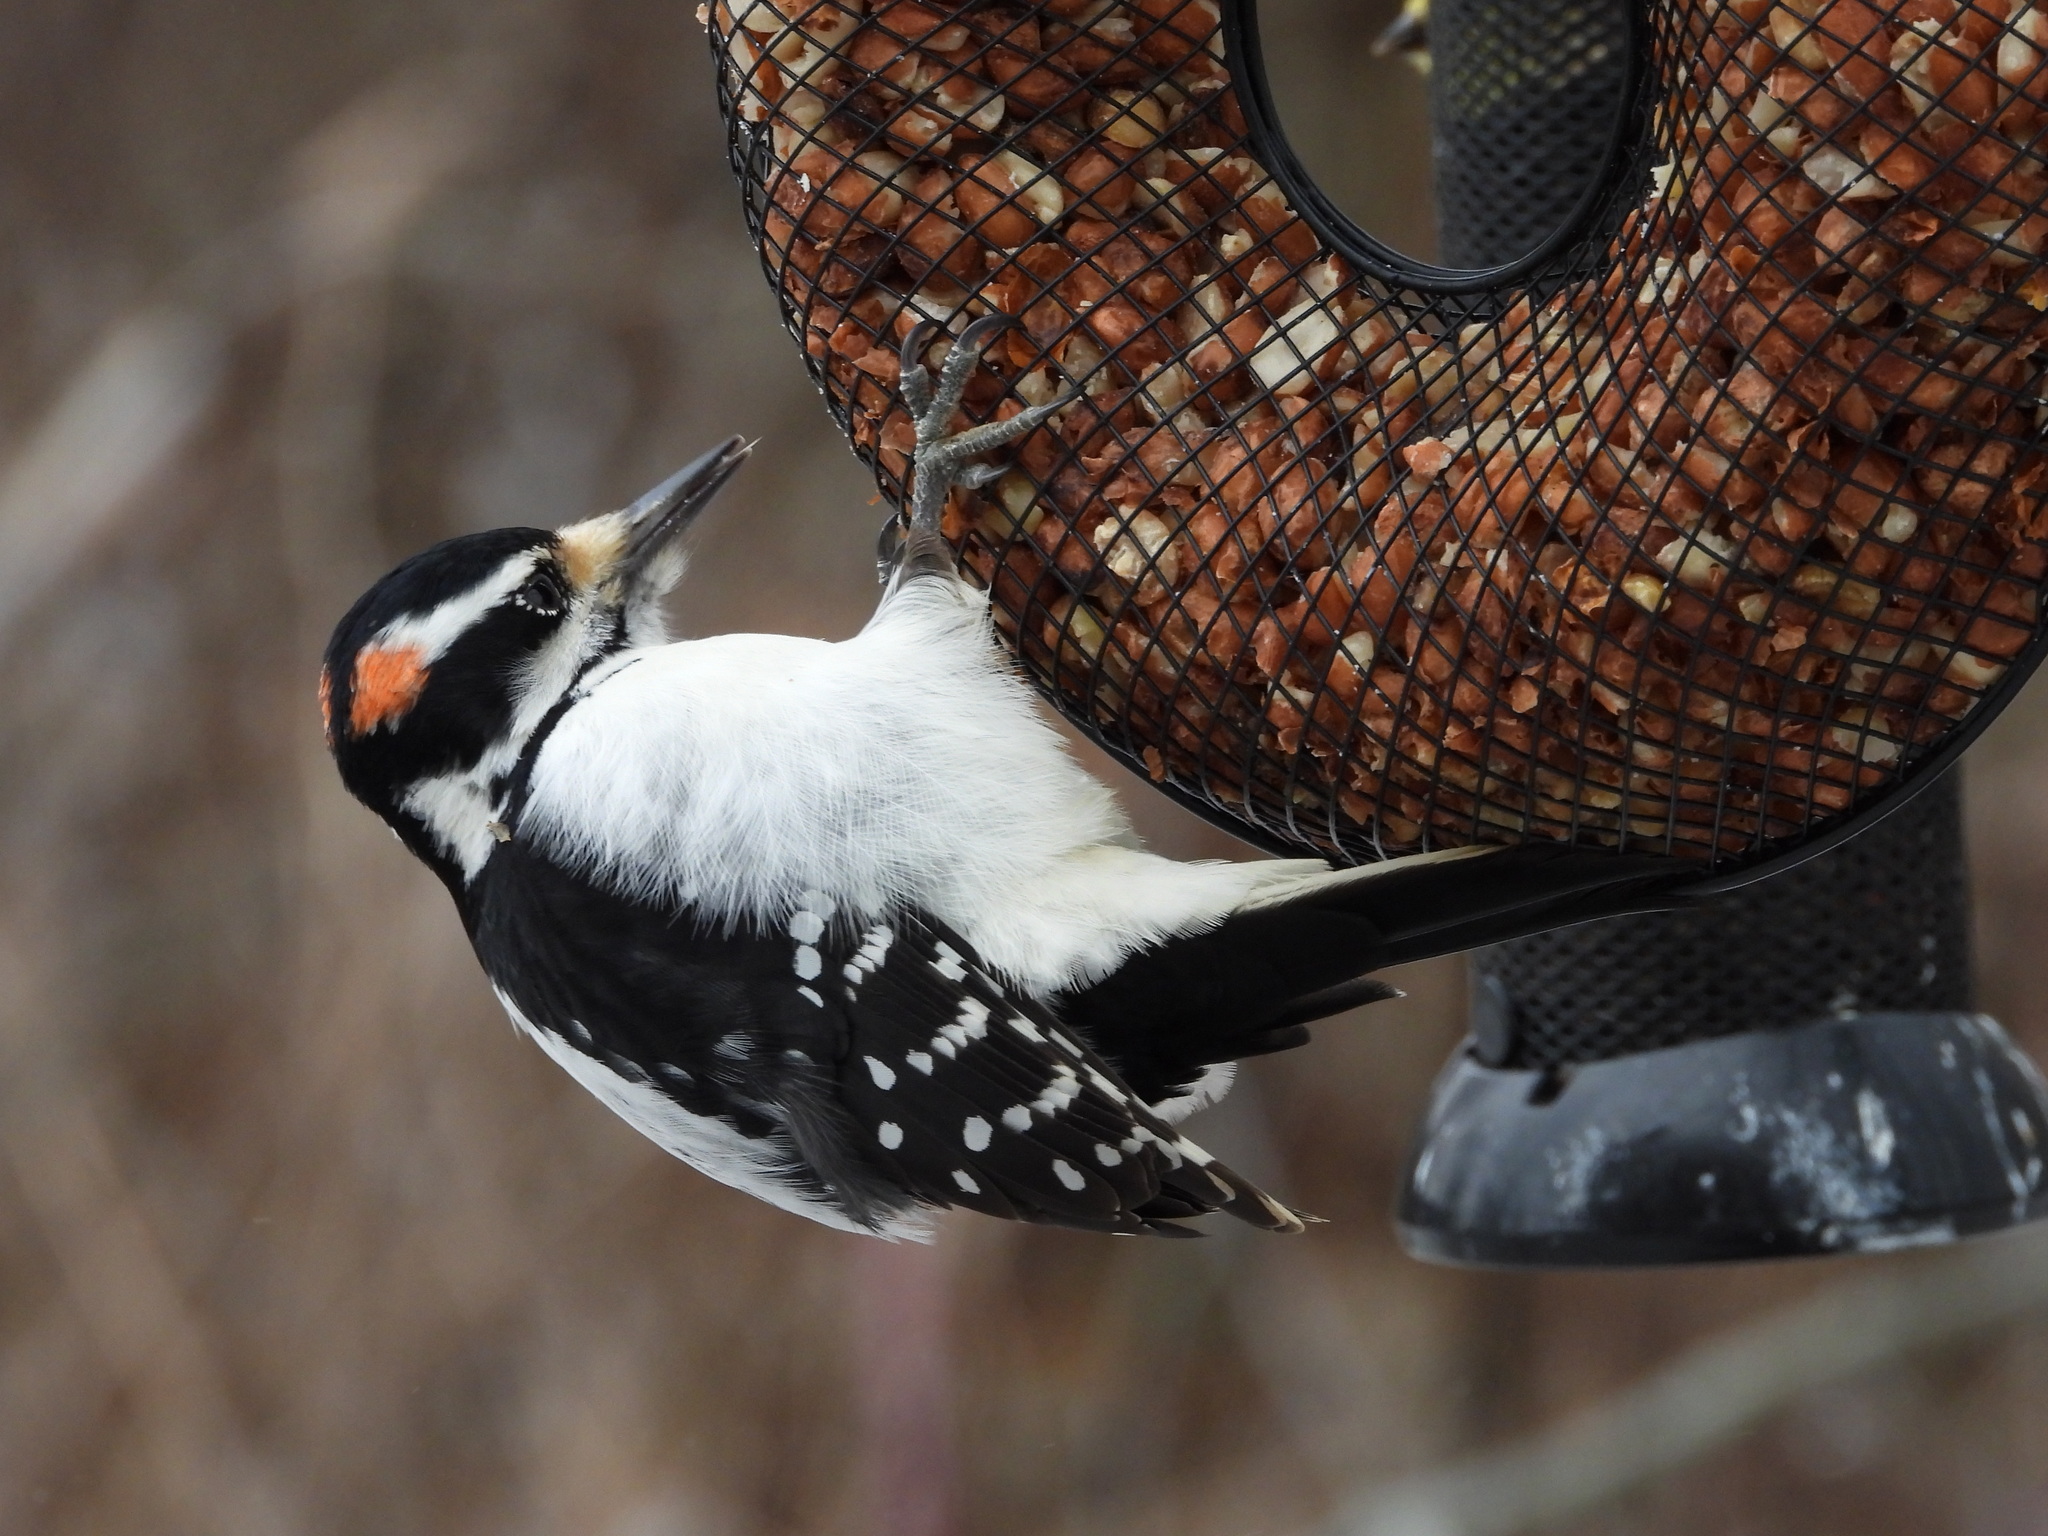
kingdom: Animalia
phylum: Chordata
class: Aves
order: Piciformes
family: Picidae
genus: Leuconotopicus
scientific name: Leuconotopicus villosus
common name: Hairy woodpecker
